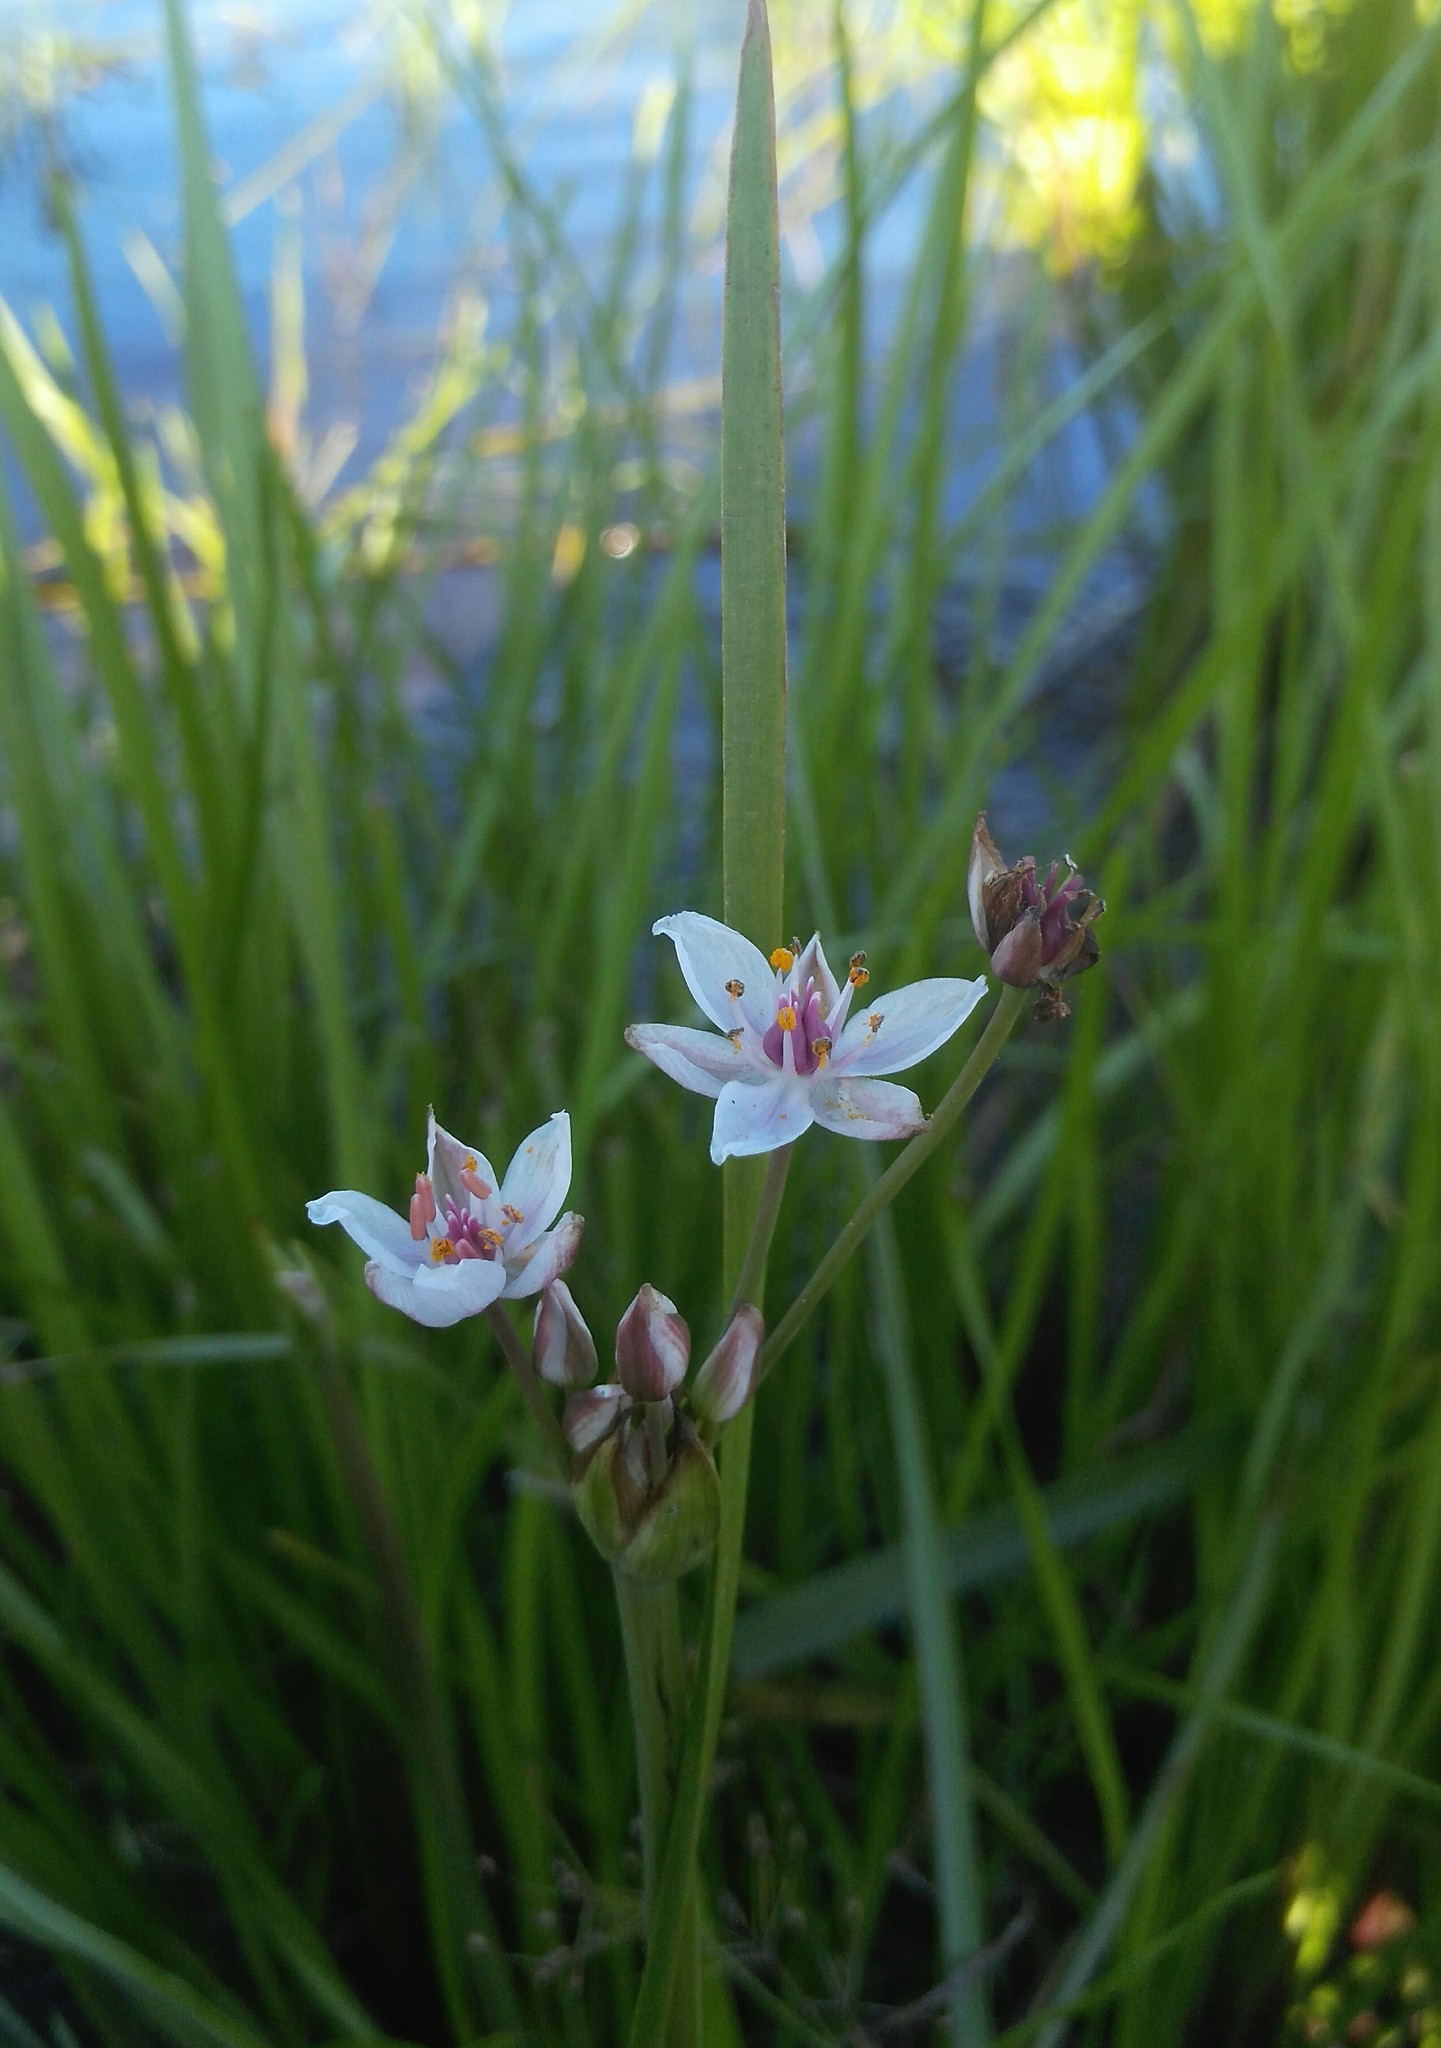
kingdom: Plantae
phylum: Tracheophyta
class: Liliopsida
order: Alismatales
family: Butomaceae
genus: Butomus
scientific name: Butomus umbellatus
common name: Flowering-rush
